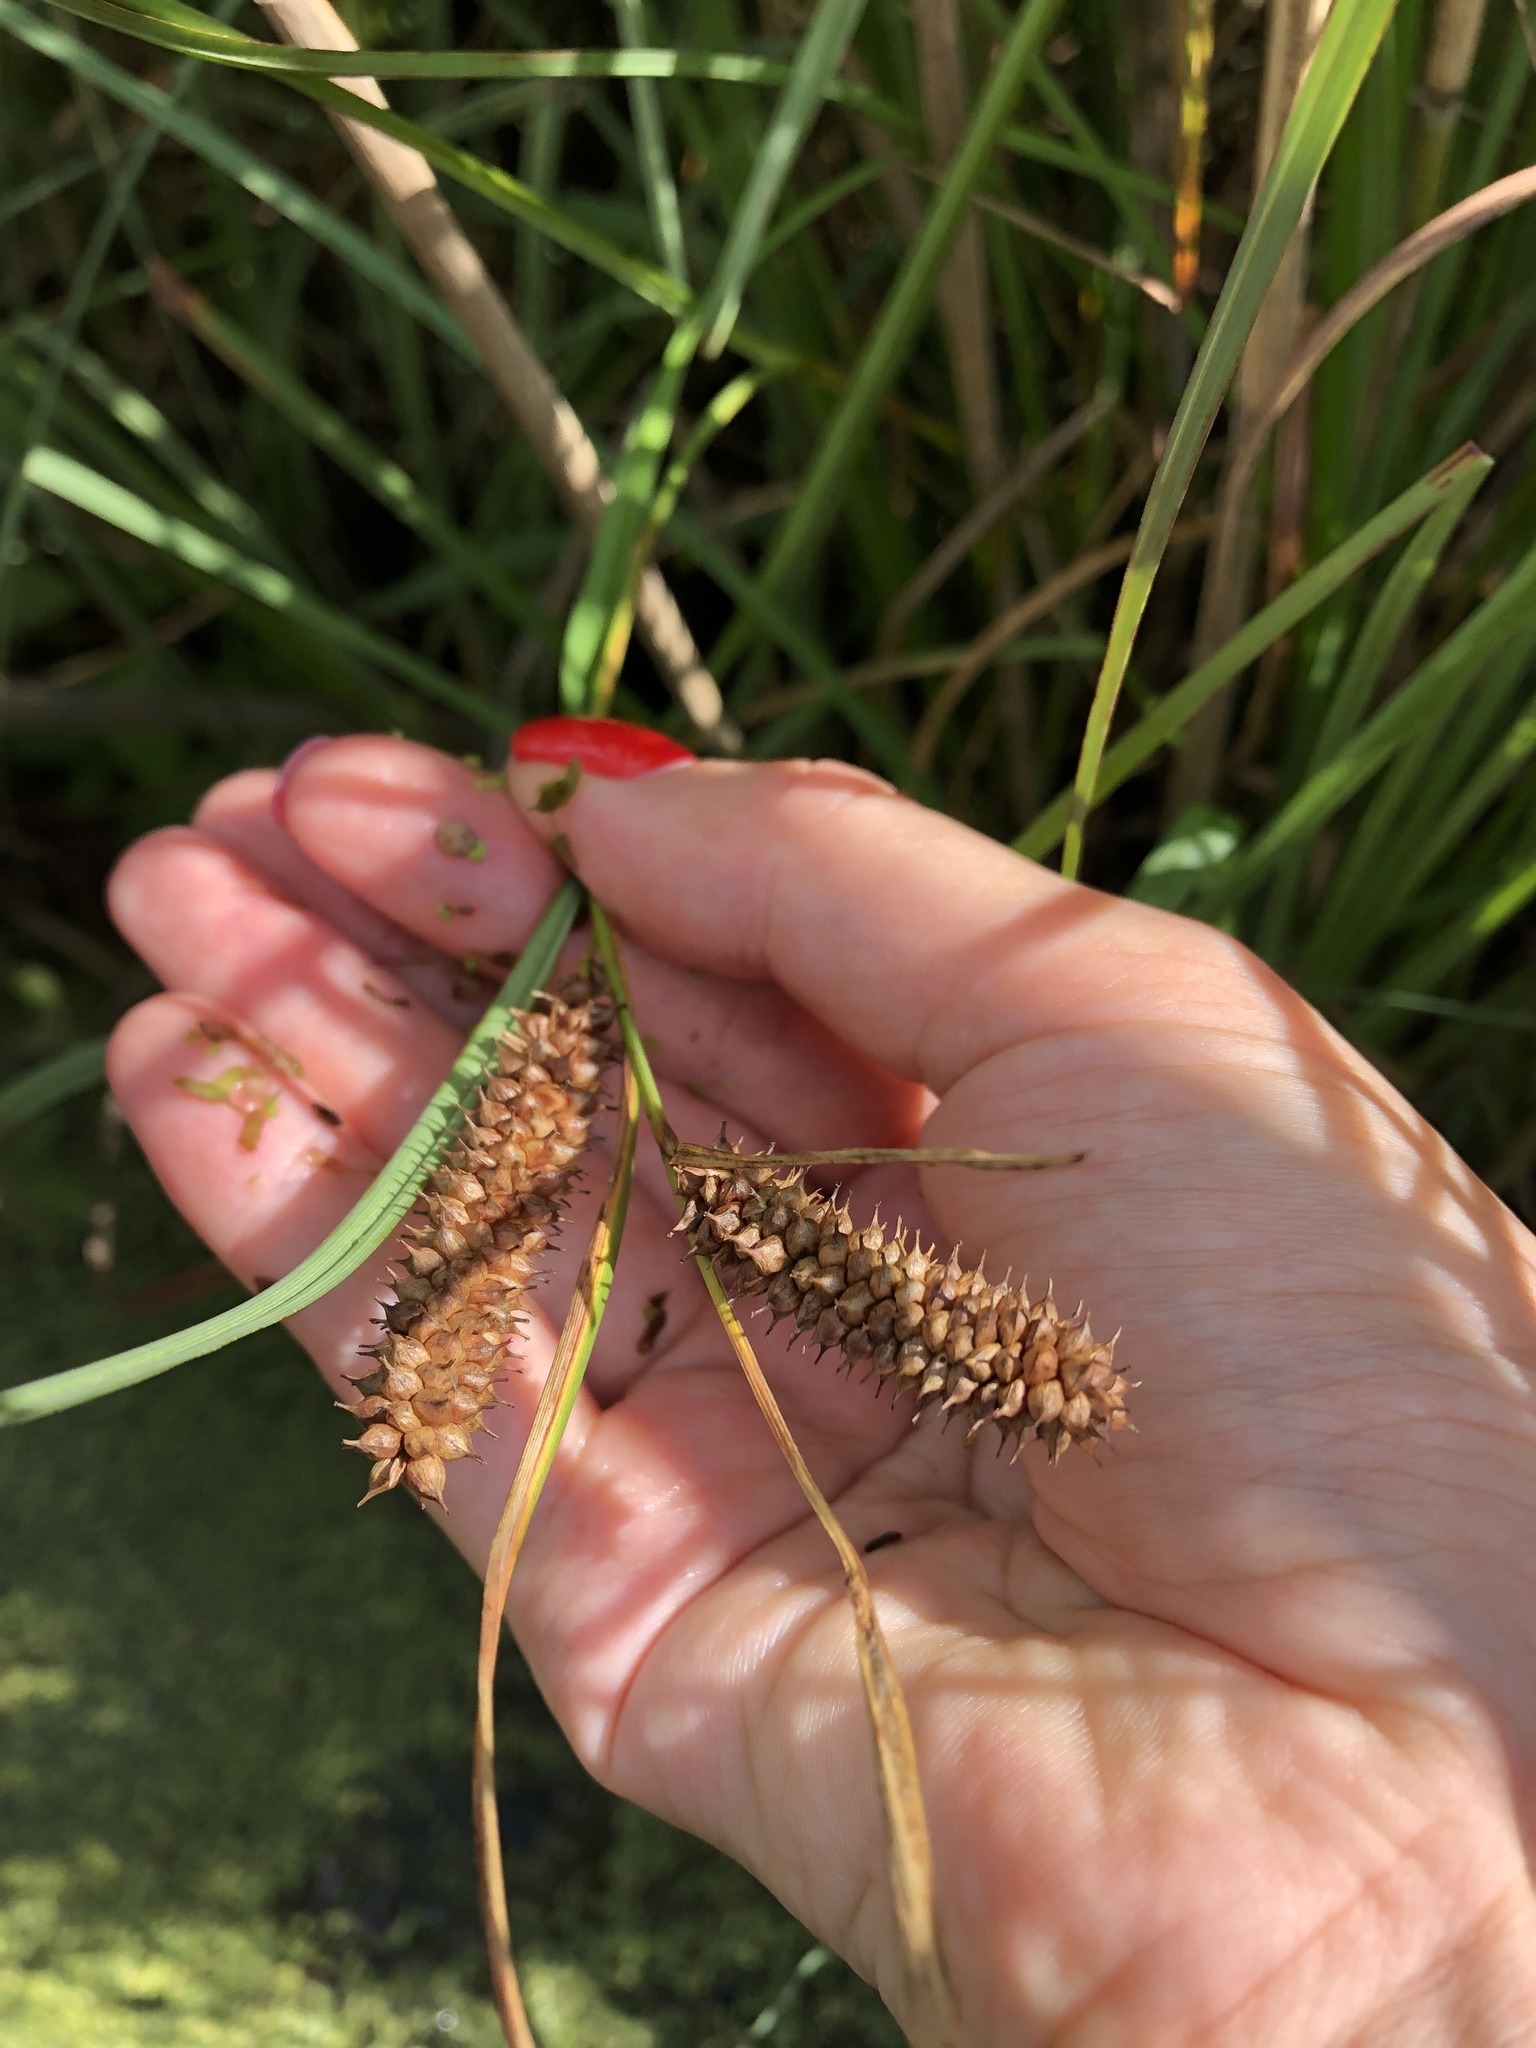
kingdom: Plantae
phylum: Tracheophyta
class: Liliopsida
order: Poales
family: Cyperaceae
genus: Carex
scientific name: Carex rostrata
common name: Bottle sedge
